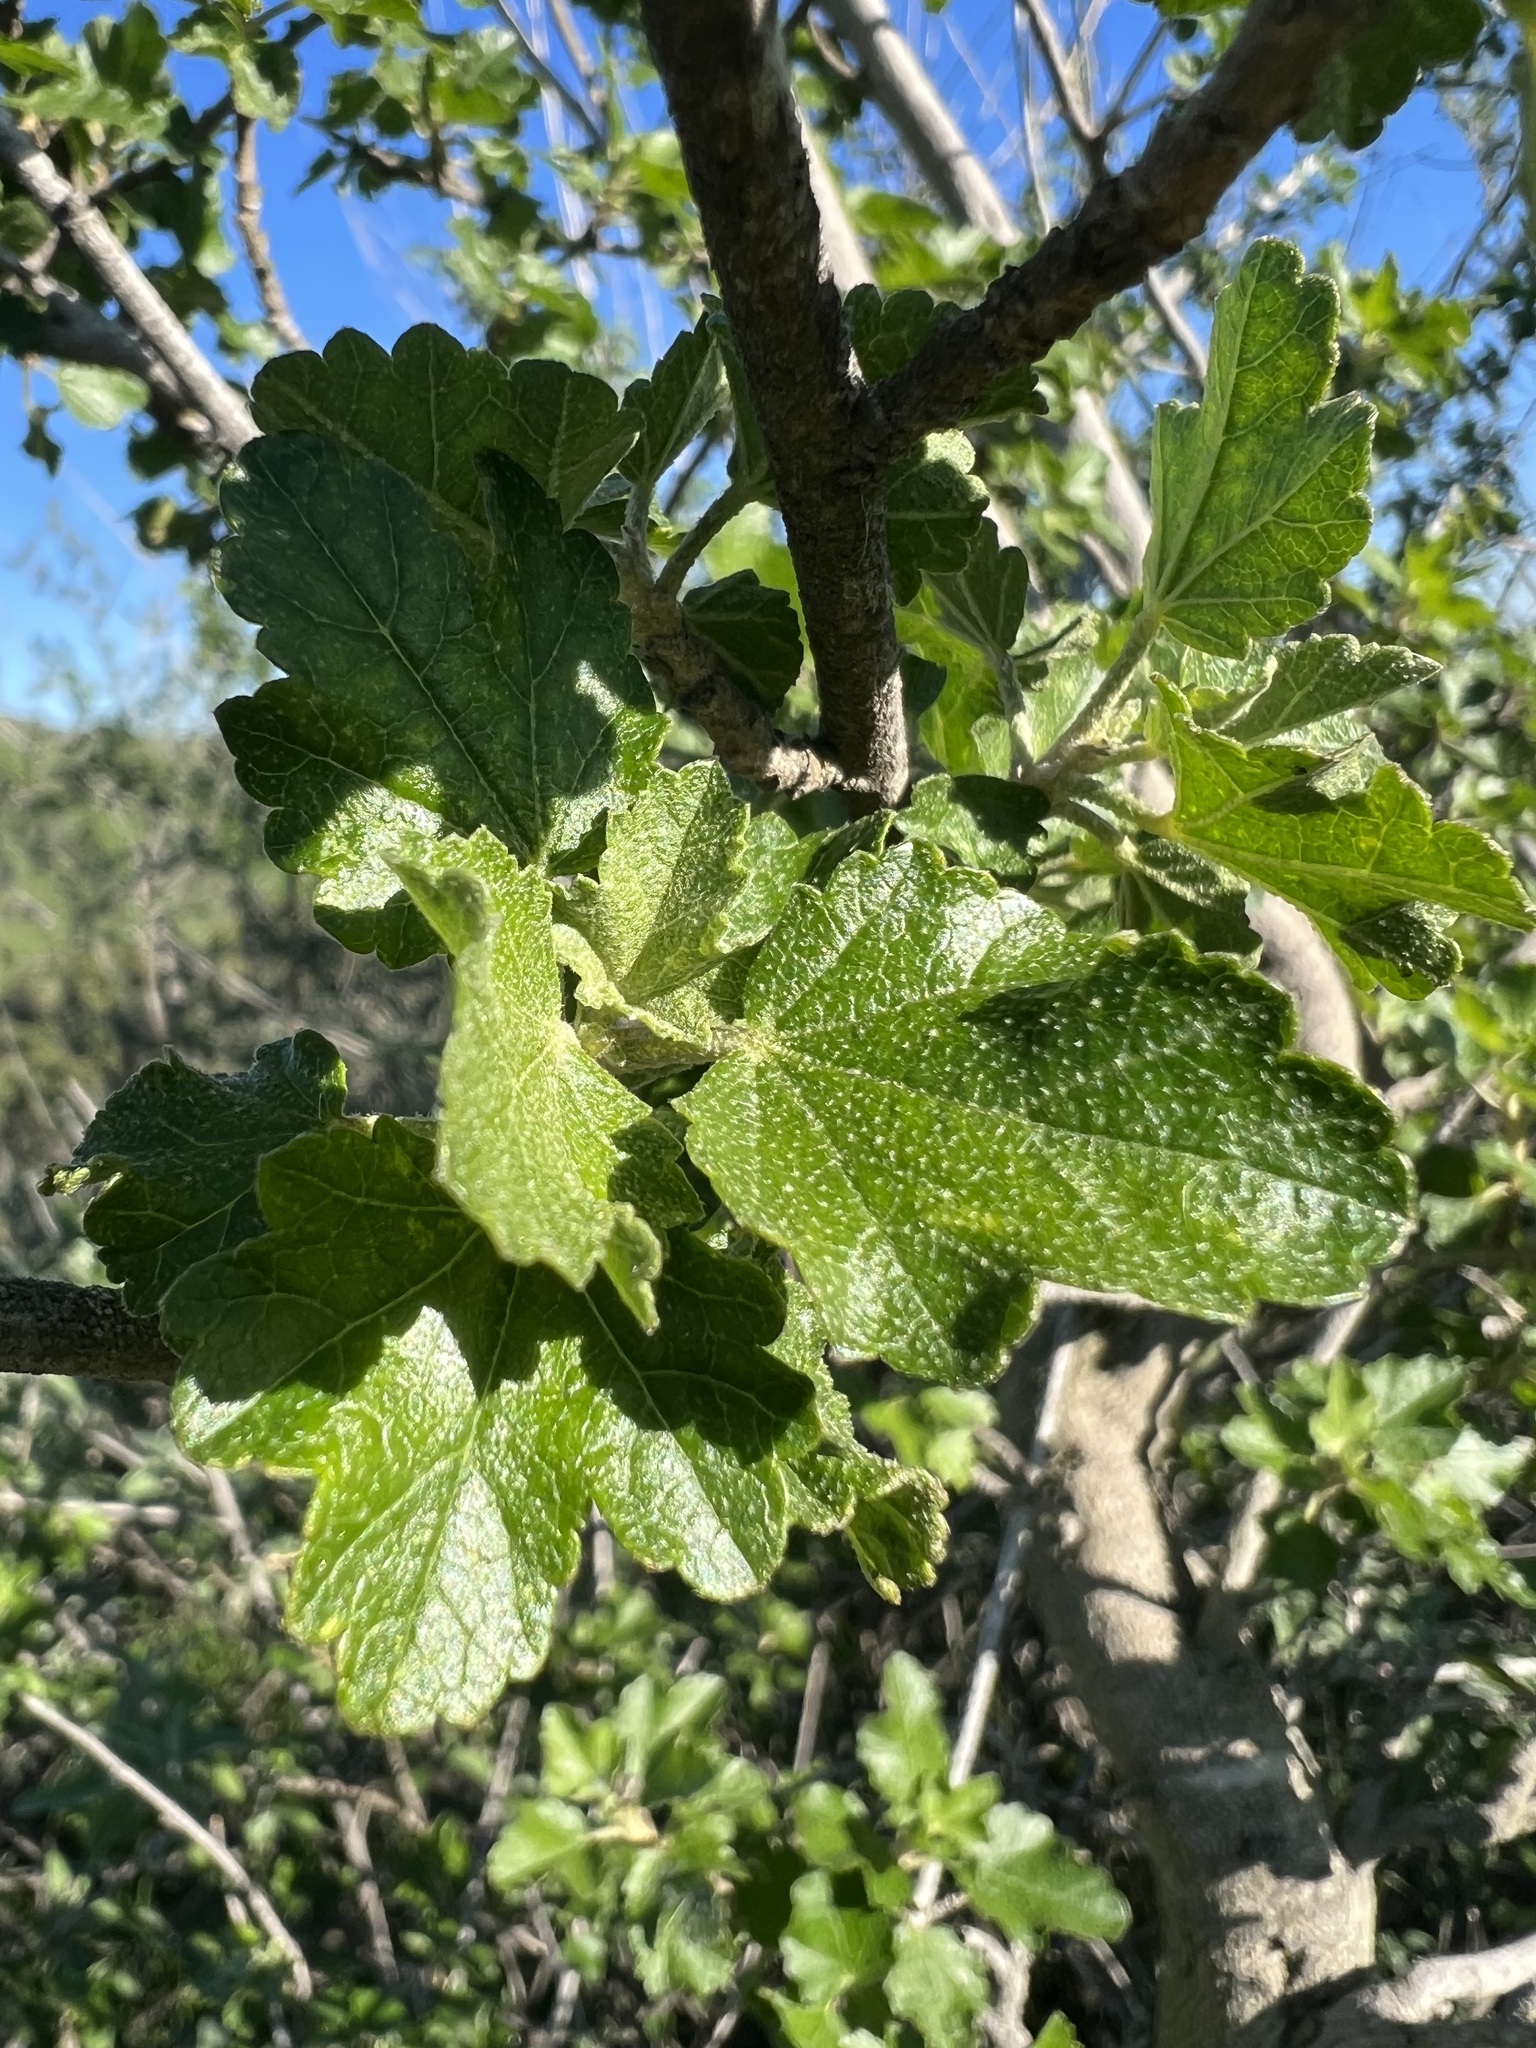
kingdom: Plantae
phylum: Tracheophyta
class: Magnoliopsida
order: Malvales
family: Malvaceae
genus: Malacothamnus
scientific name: Malacothamnus fasciculatus
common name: Sant cruz island bush-mallow
